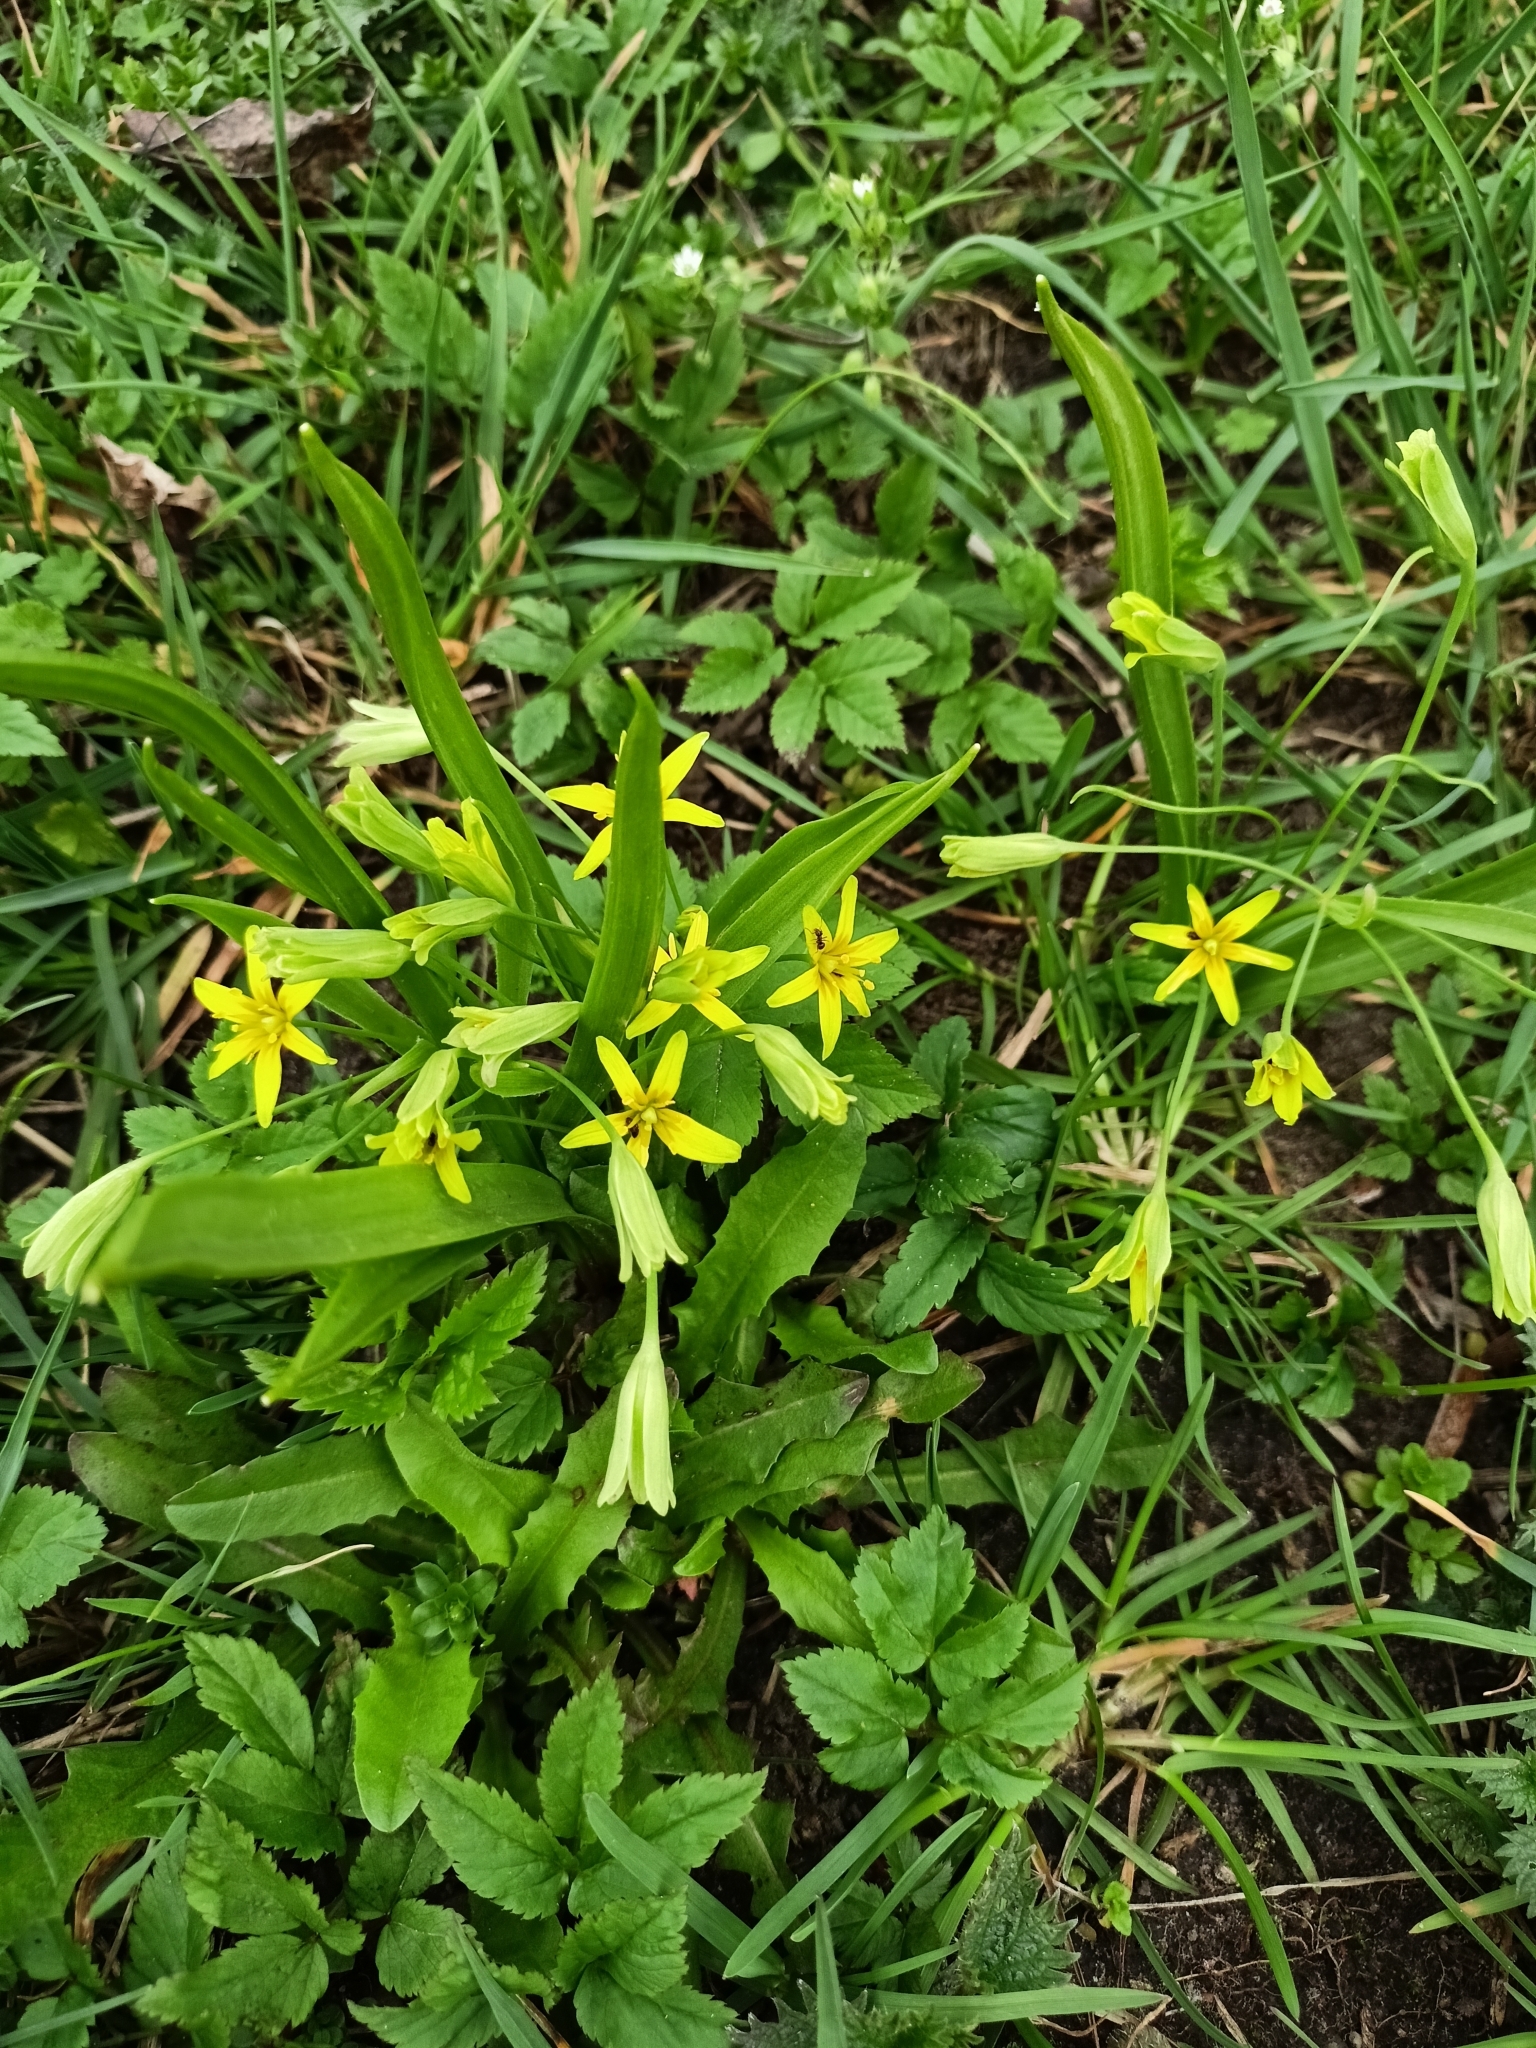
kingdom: Plantae
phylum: Tracheophyta
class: Liliopsida
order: Liliales
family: Liliaceae
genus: Gagea
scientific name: Gagea lutea
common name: Yellow star-of-bethlehem
